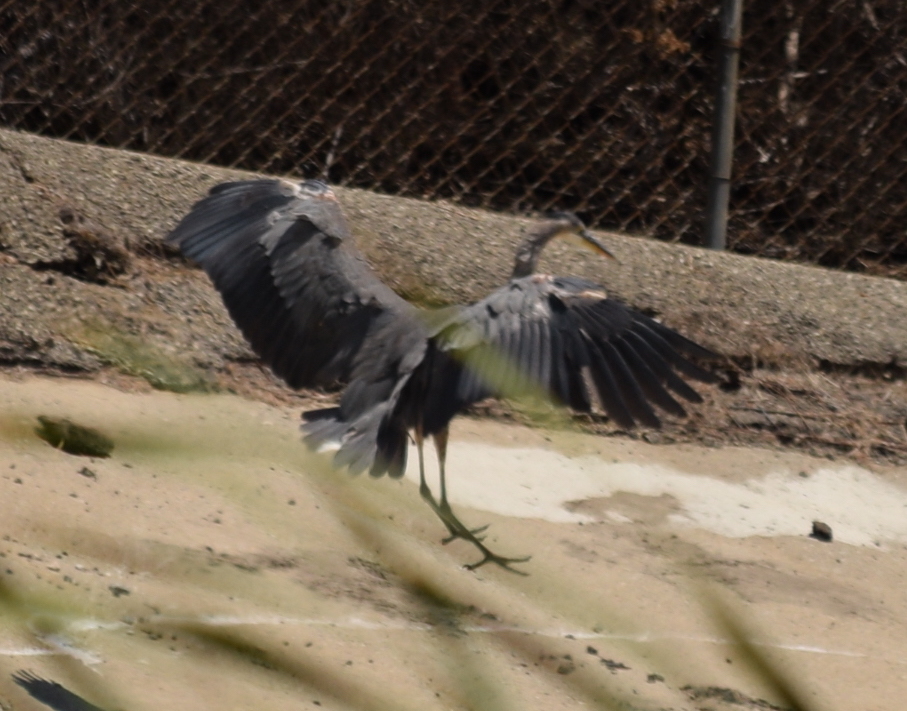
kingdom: Animalia
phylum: Chordata
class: Aves
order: Pelecaniformes
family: Ardeidae
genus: Ardea
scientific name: Ardea herodias
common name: Great blue heron
